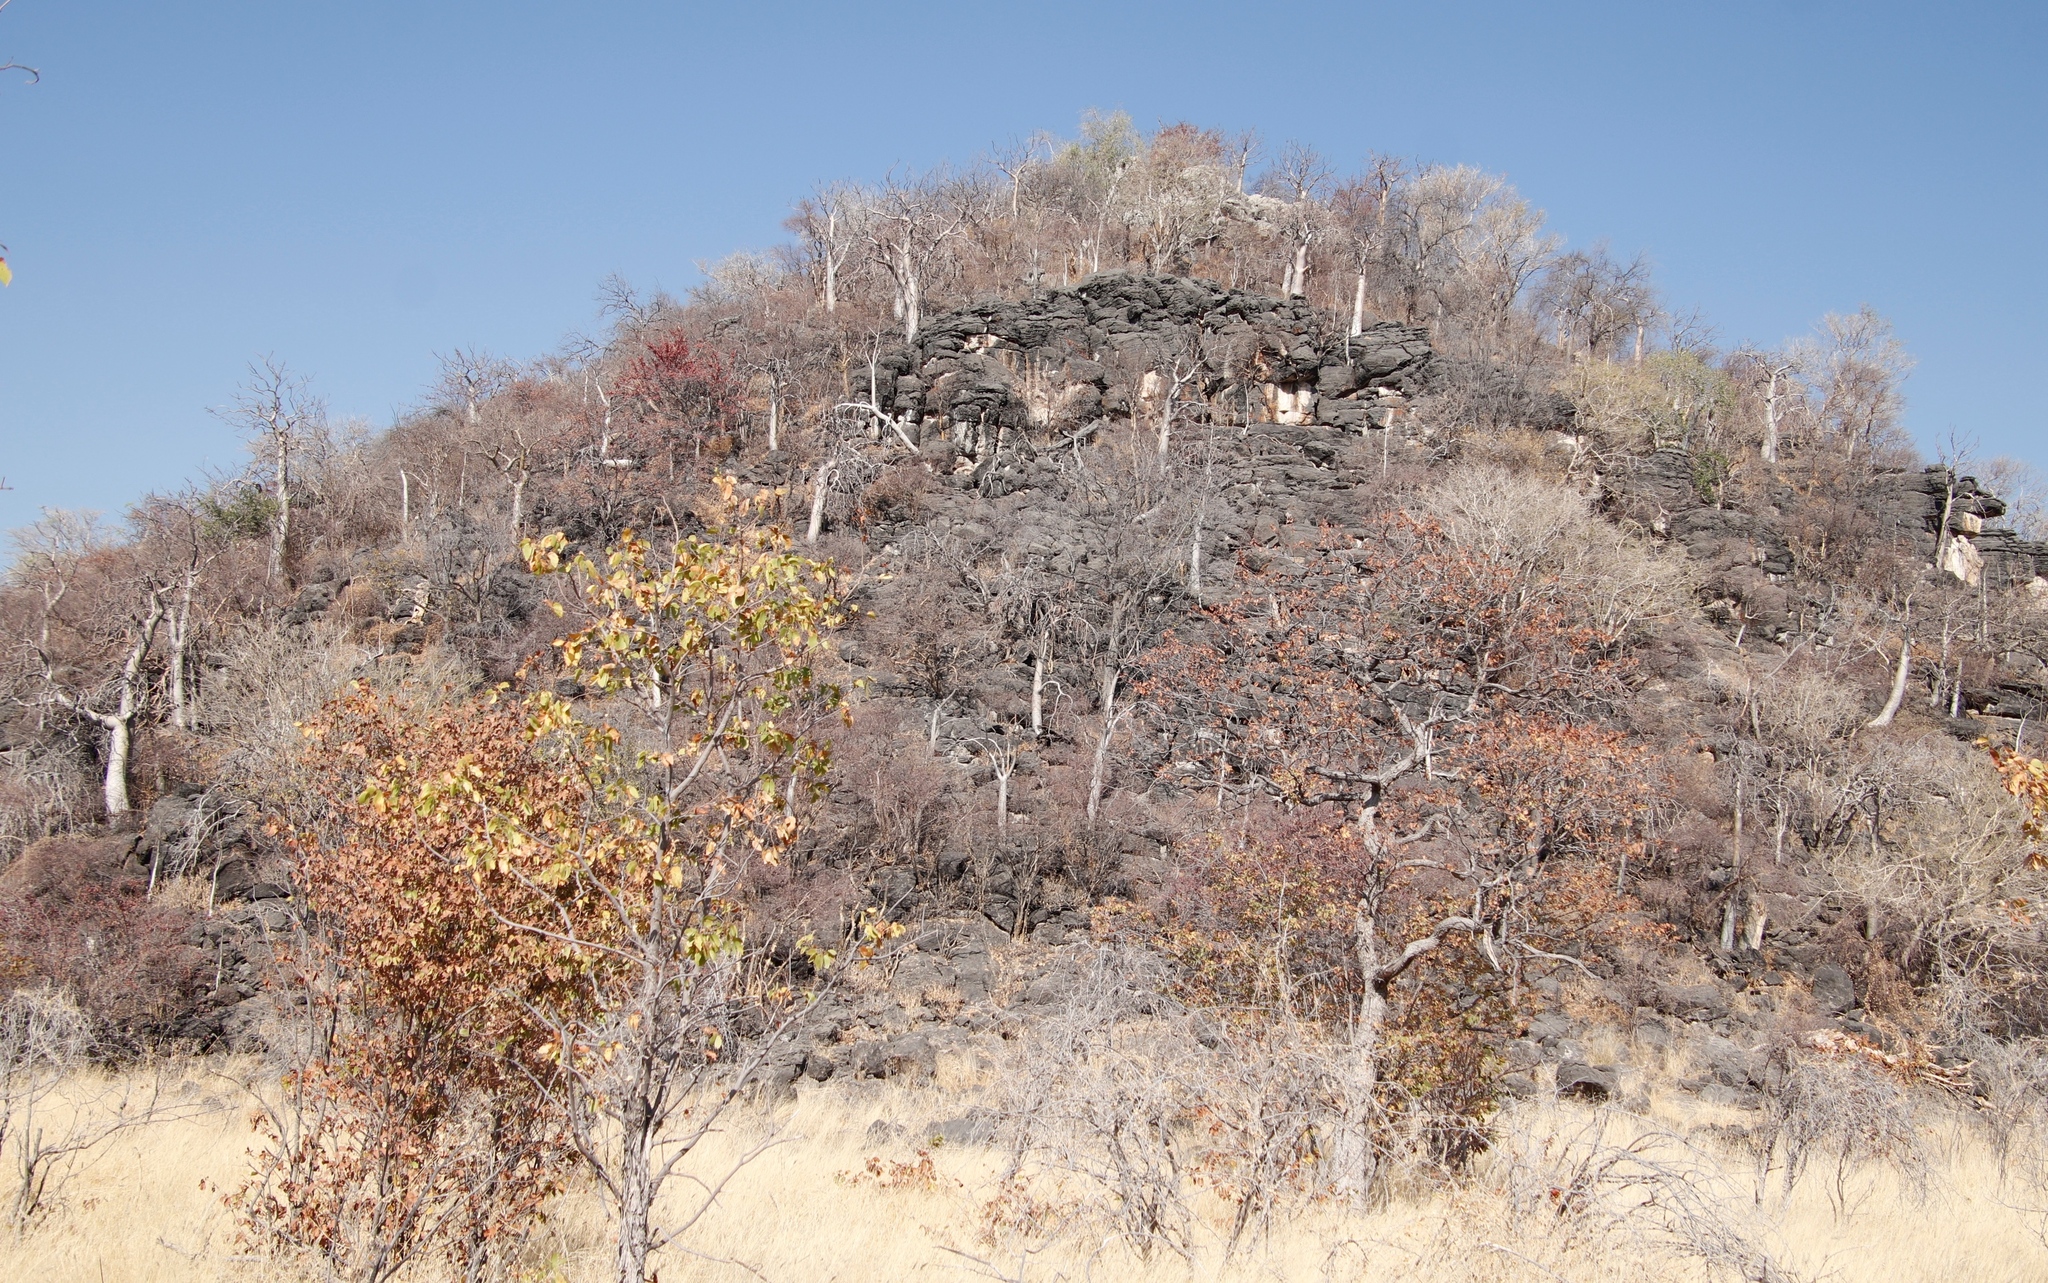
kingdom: Plantae
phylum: Tracheophyta
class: Magnoliopsida
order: Brassicales
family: Moringaceae
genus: Moringa
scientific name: Moringa ovalifolia
